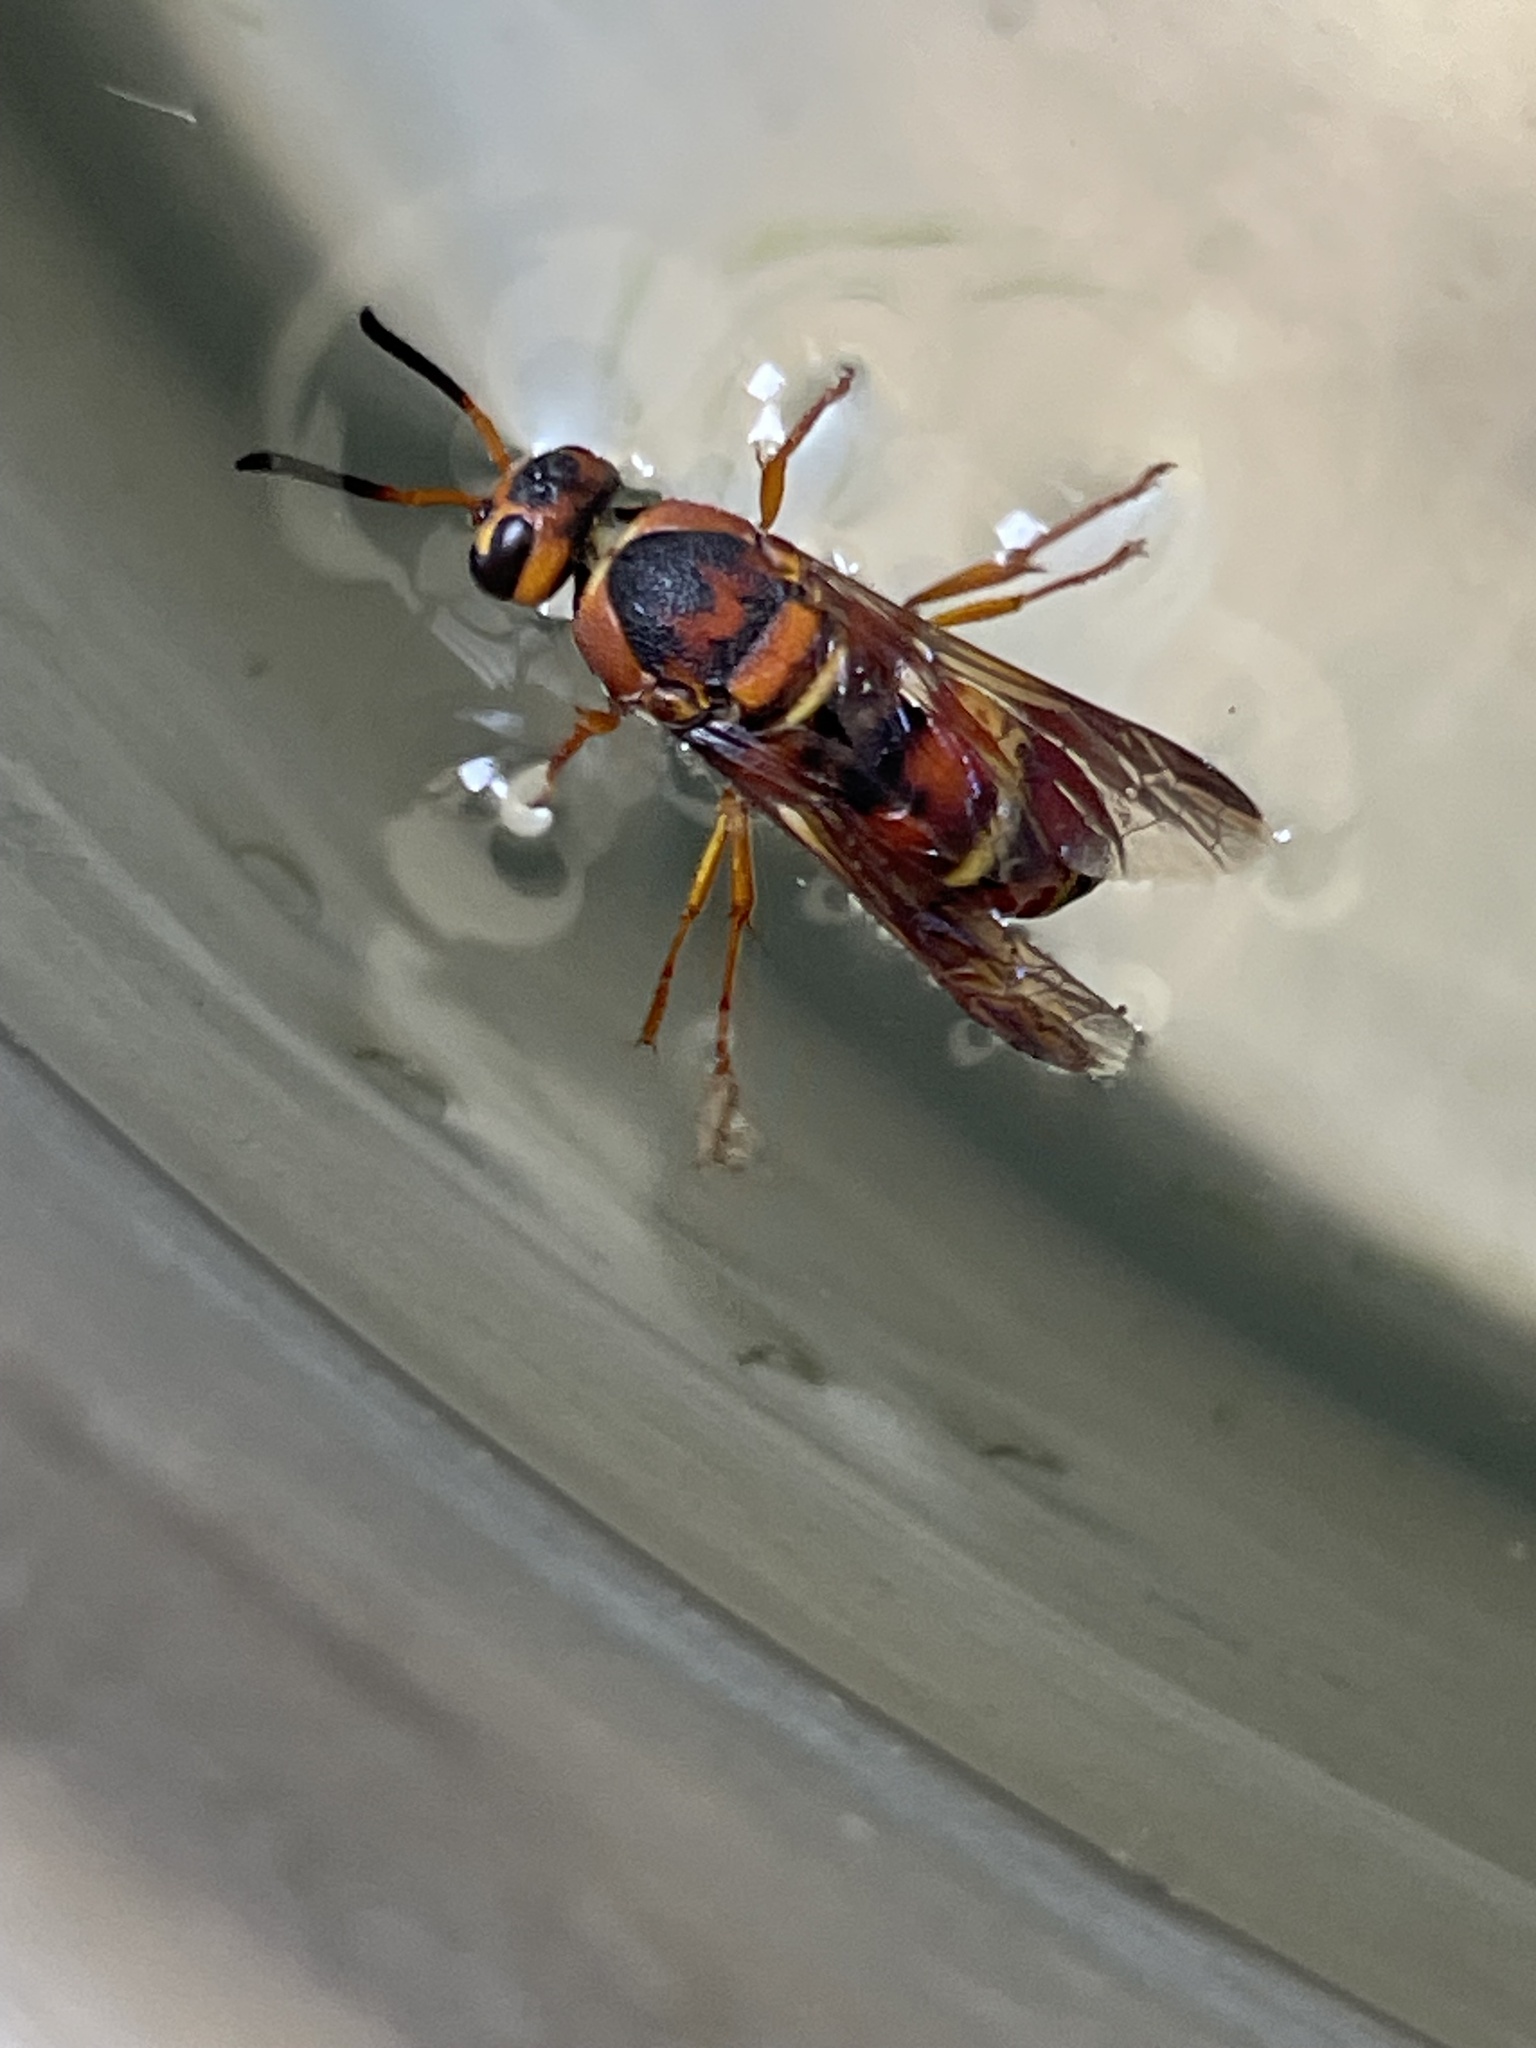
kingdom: Animalia
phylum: Arthropoda
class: Insecta
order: Hymenoptera
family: Eumenidae
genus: Euodynerus
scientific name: Euodynerus hidalgo
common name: Wasp
